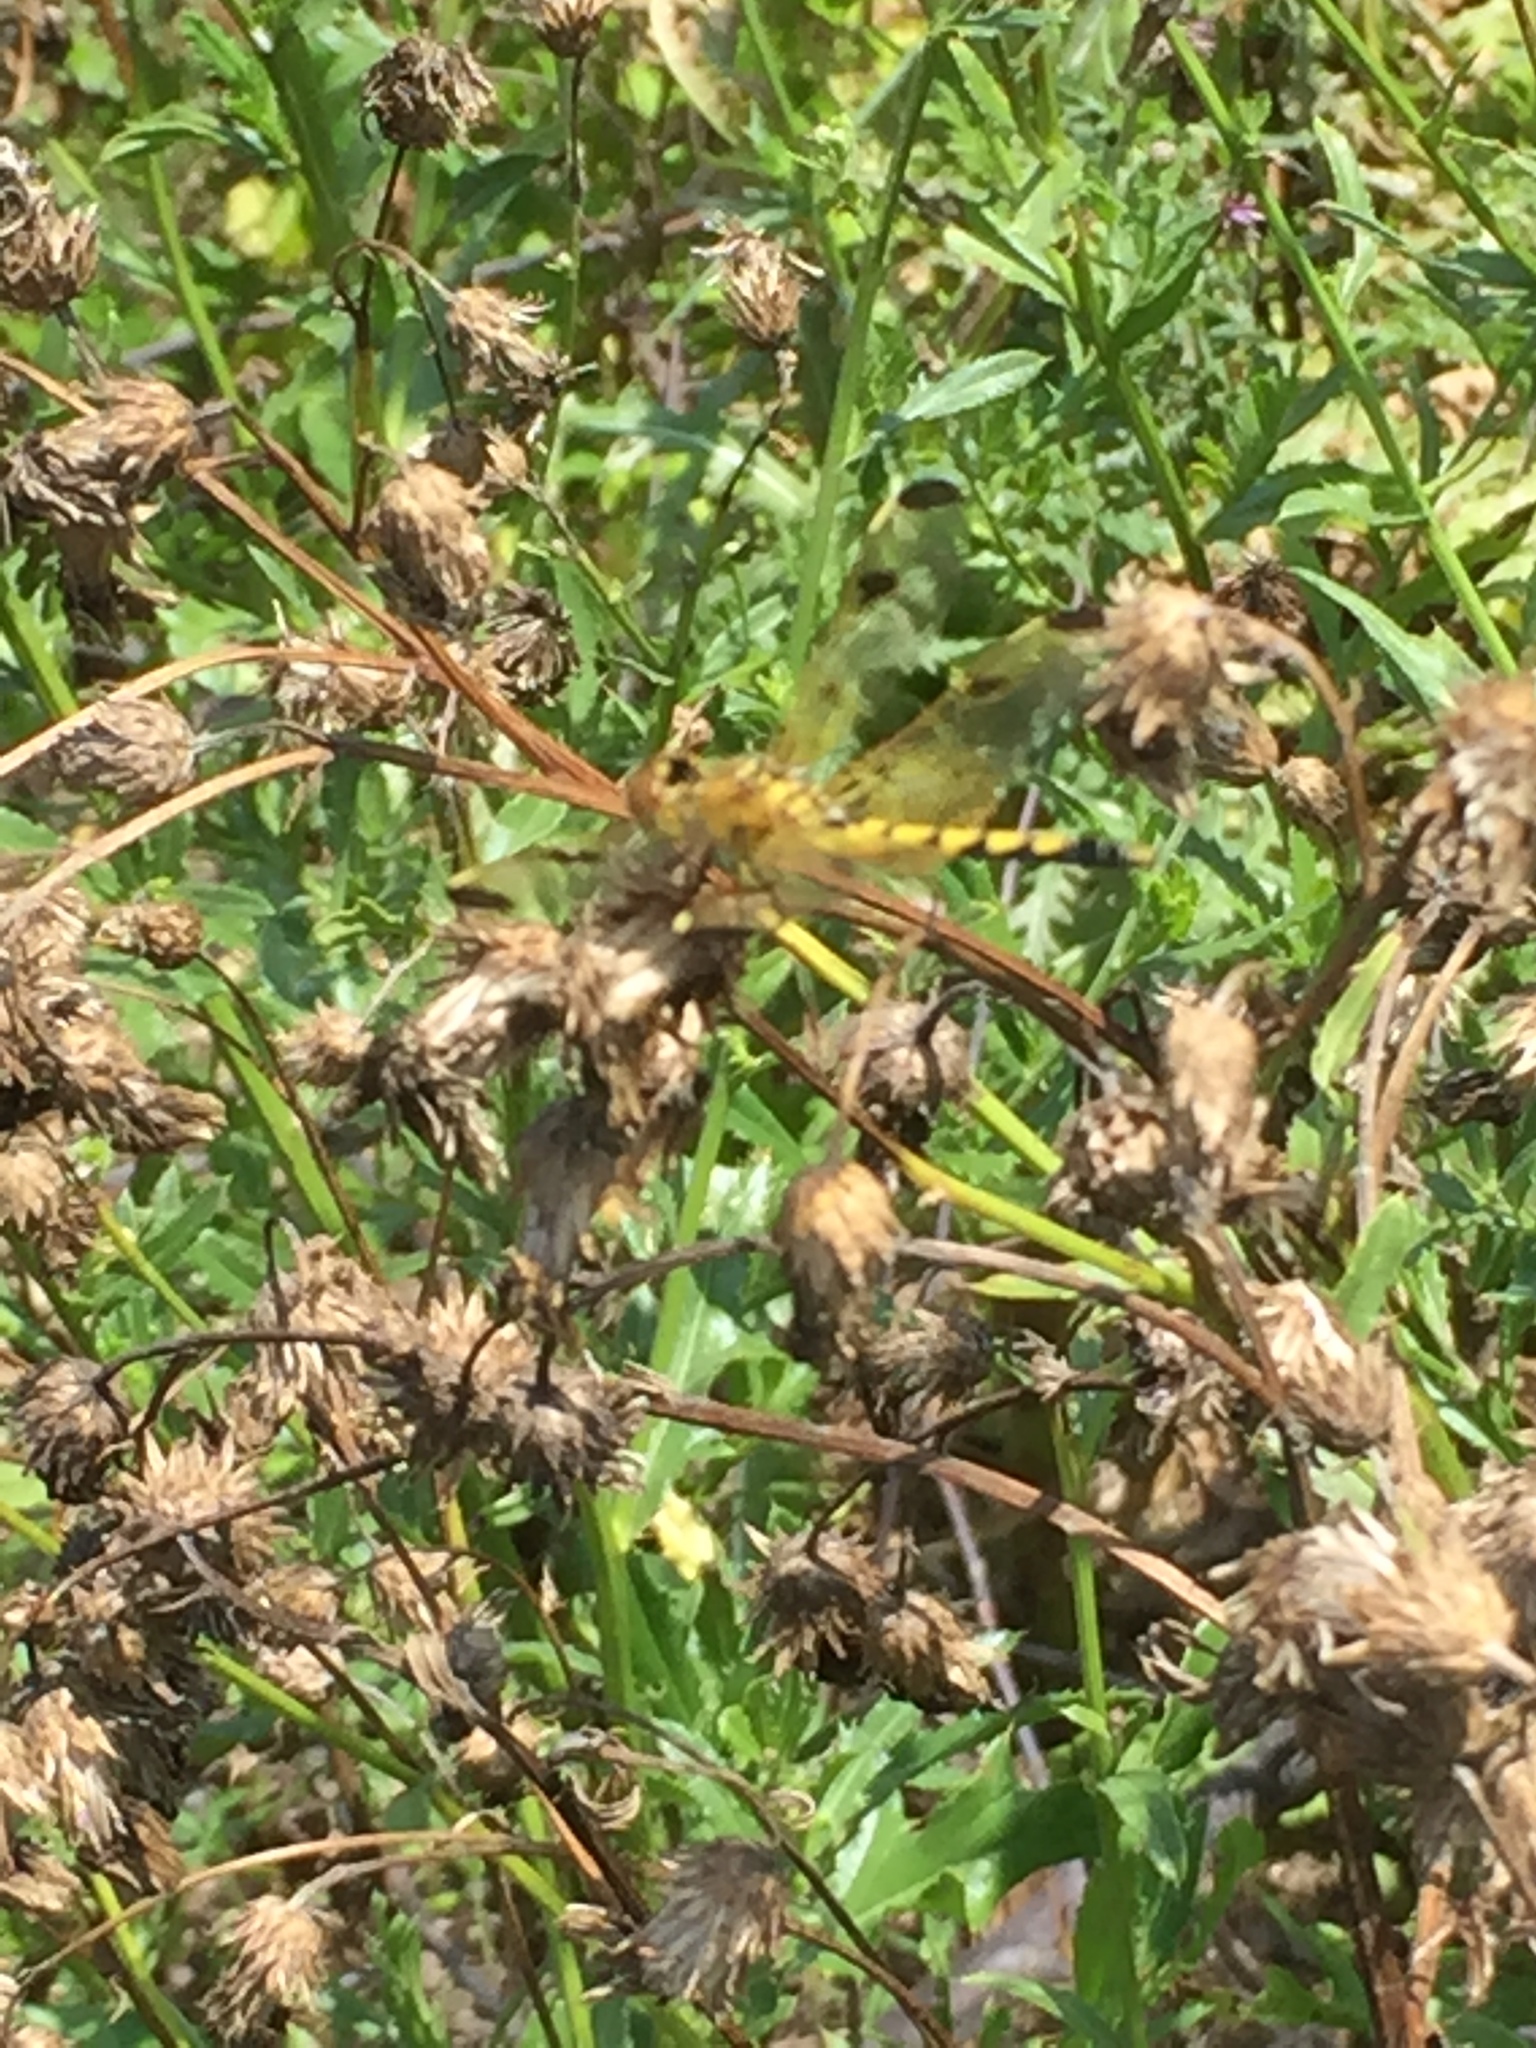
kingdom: Animalia
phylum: Arthropoda
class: Insecta
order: Odonata
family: Libellulidae
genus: Celithemis
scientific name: Celithemis elisa
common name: Calico pennant
